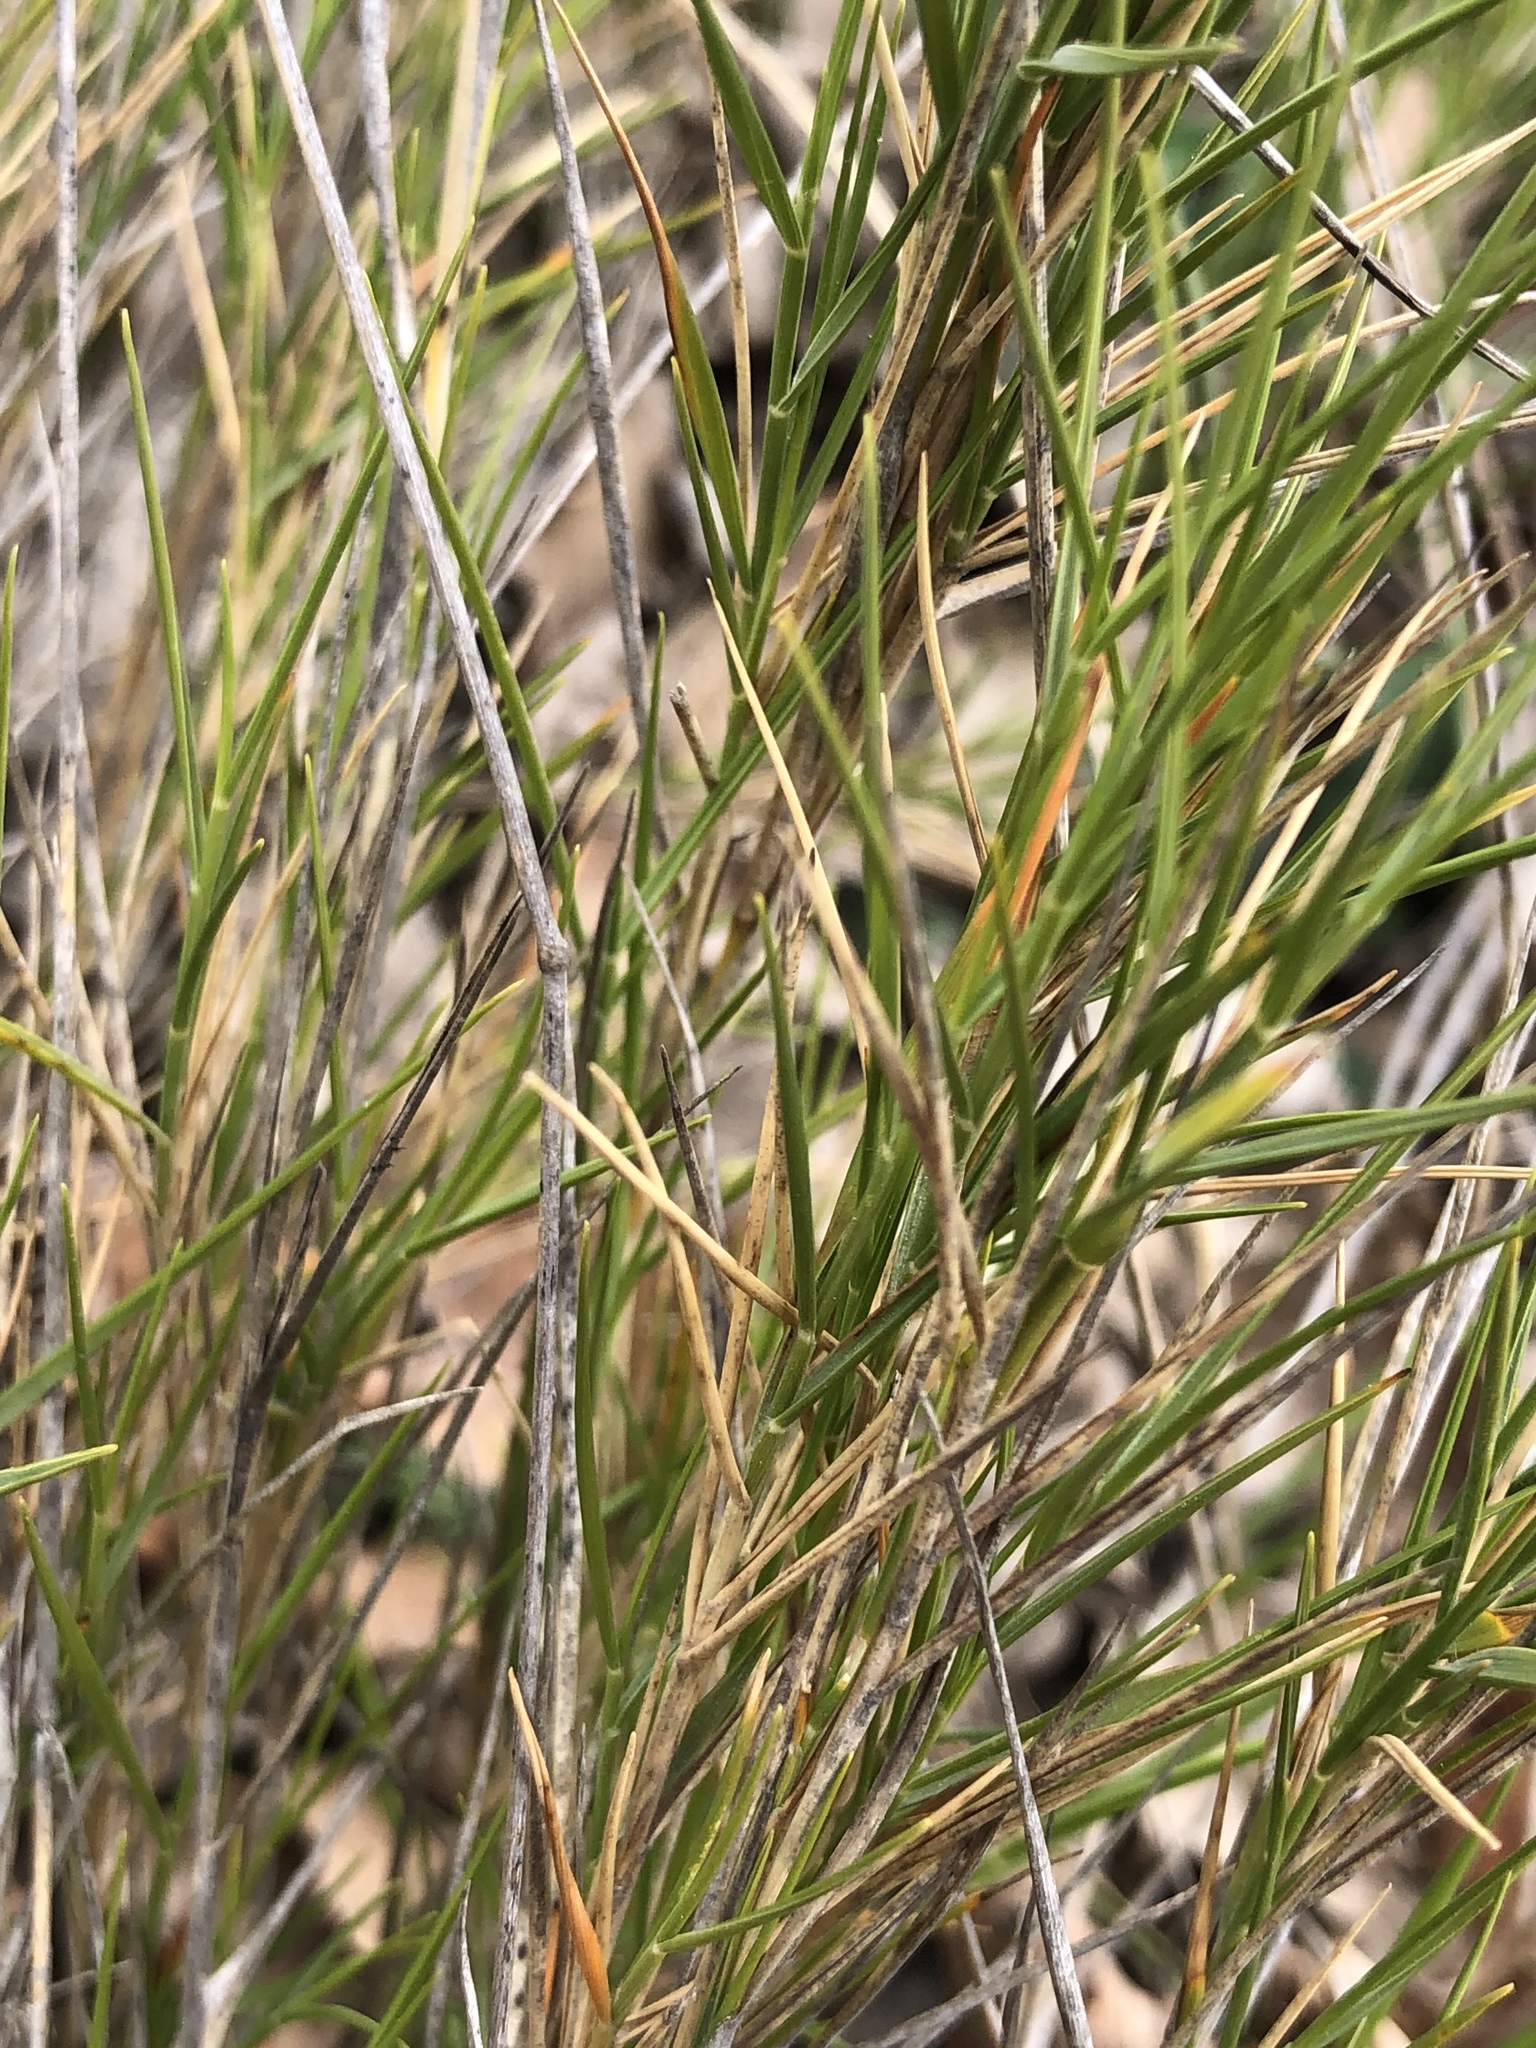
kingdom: Plantae
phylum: Tracheophyta
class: Liliopsida
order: Poales
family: Poaceae
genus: Brachypodium
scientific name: Brachypodium retusum
